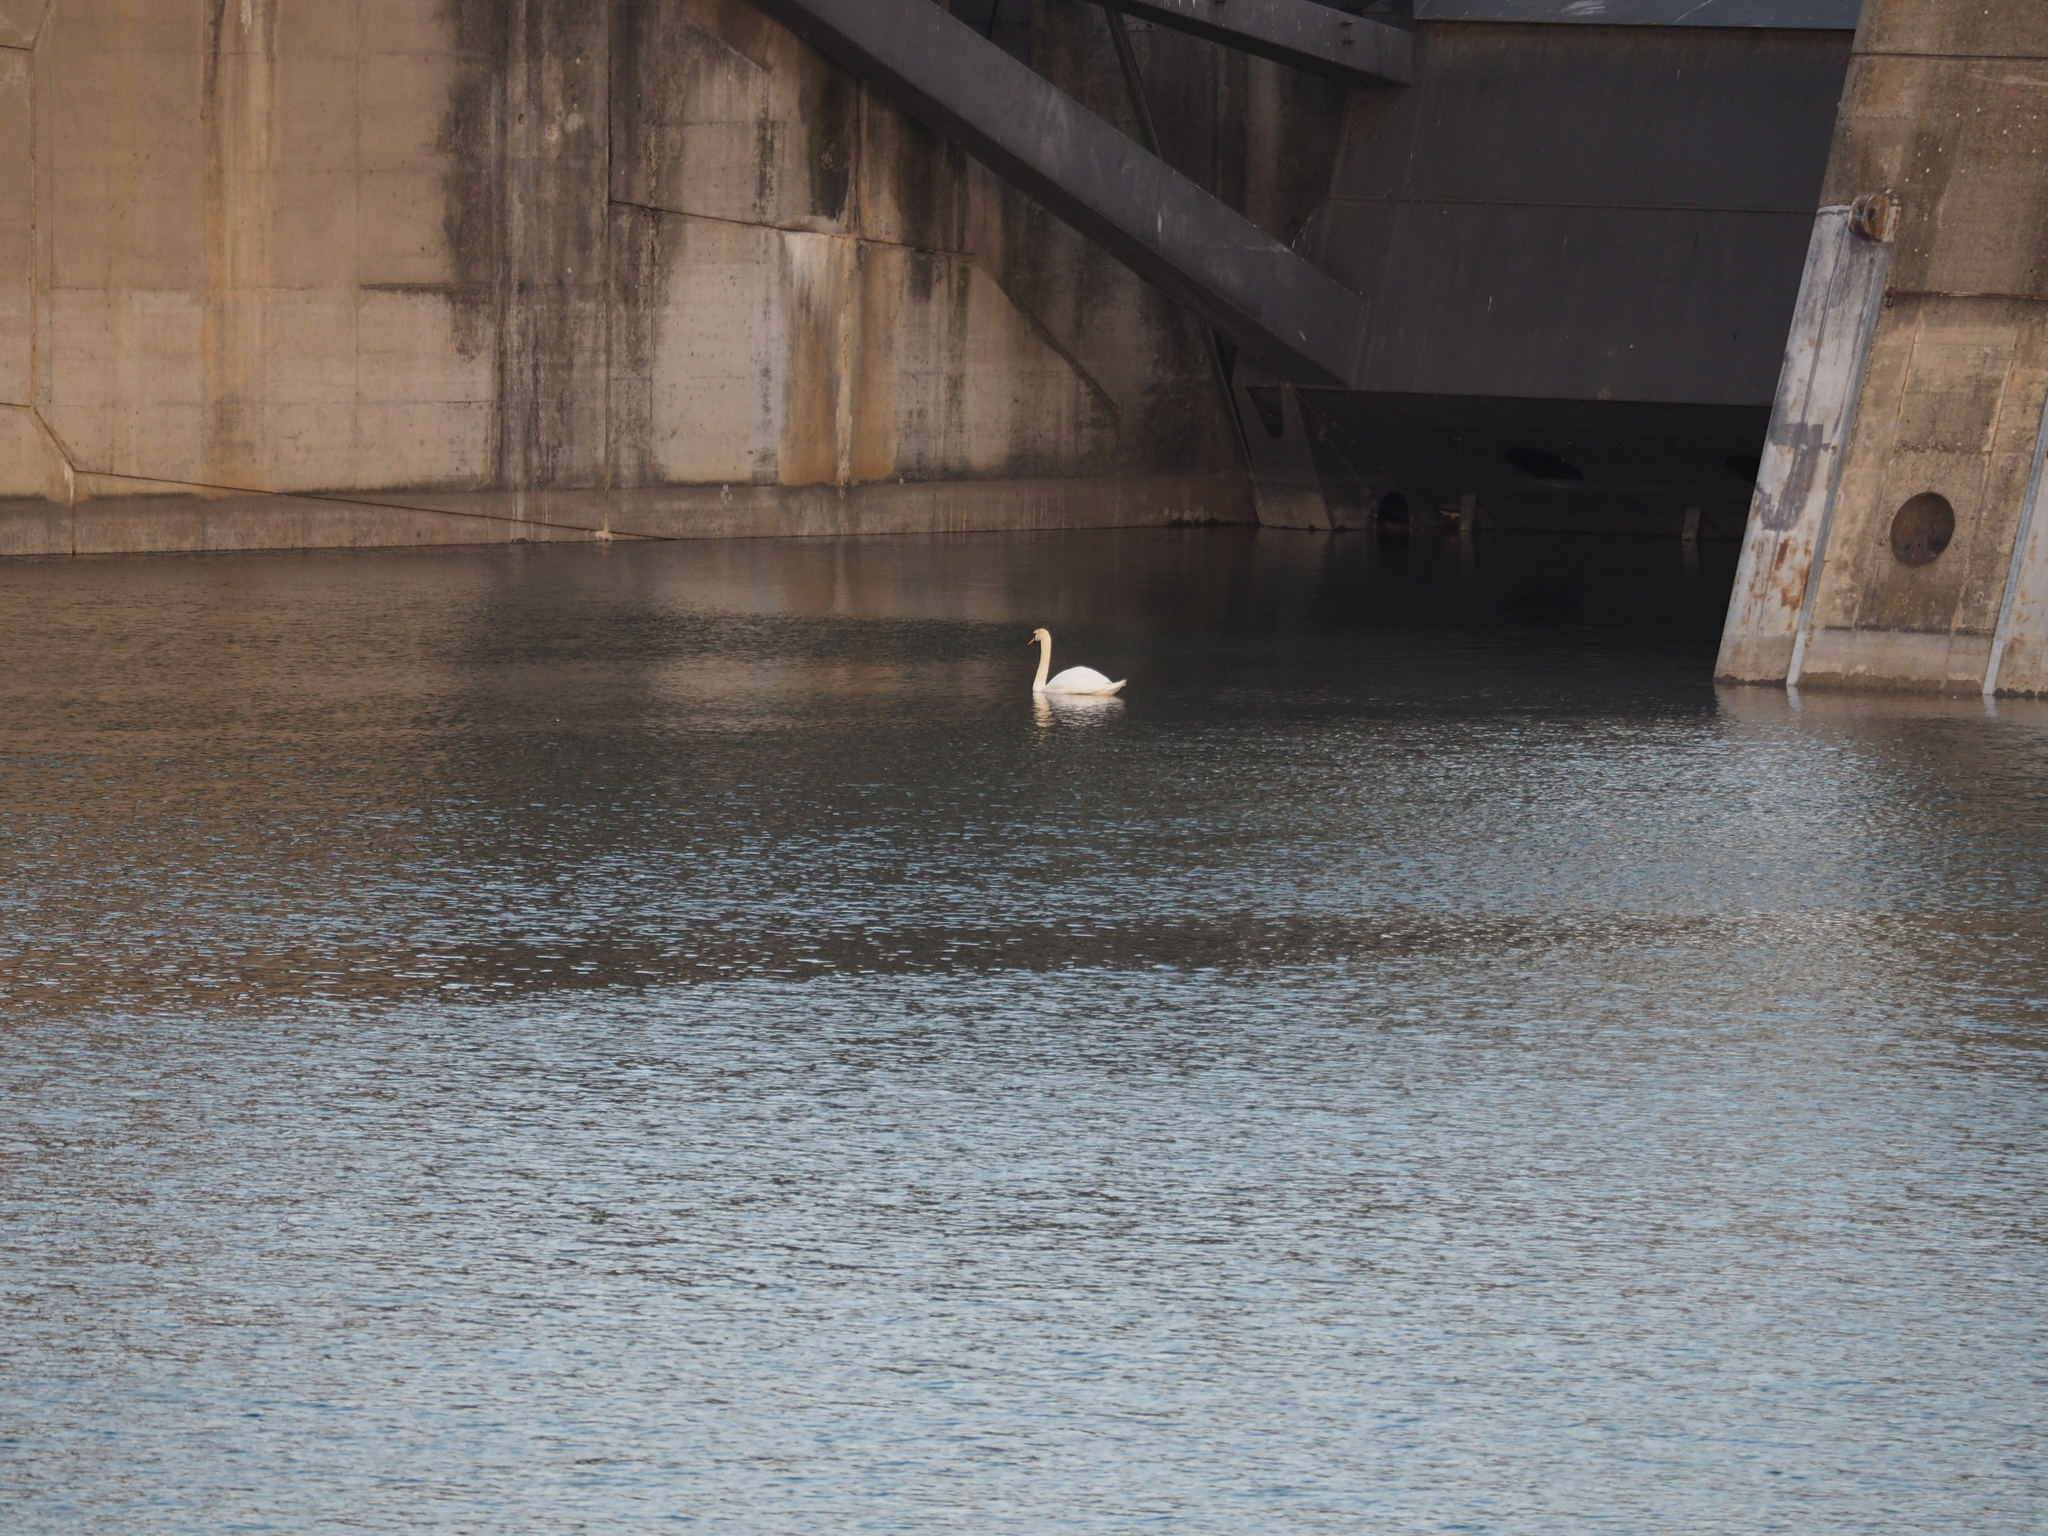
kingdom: Animalia
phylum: Chordata
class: Aves
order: Anseriformes
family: Anatidae
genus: Cygnus
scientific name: Cygnus olor
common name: Mute swan
